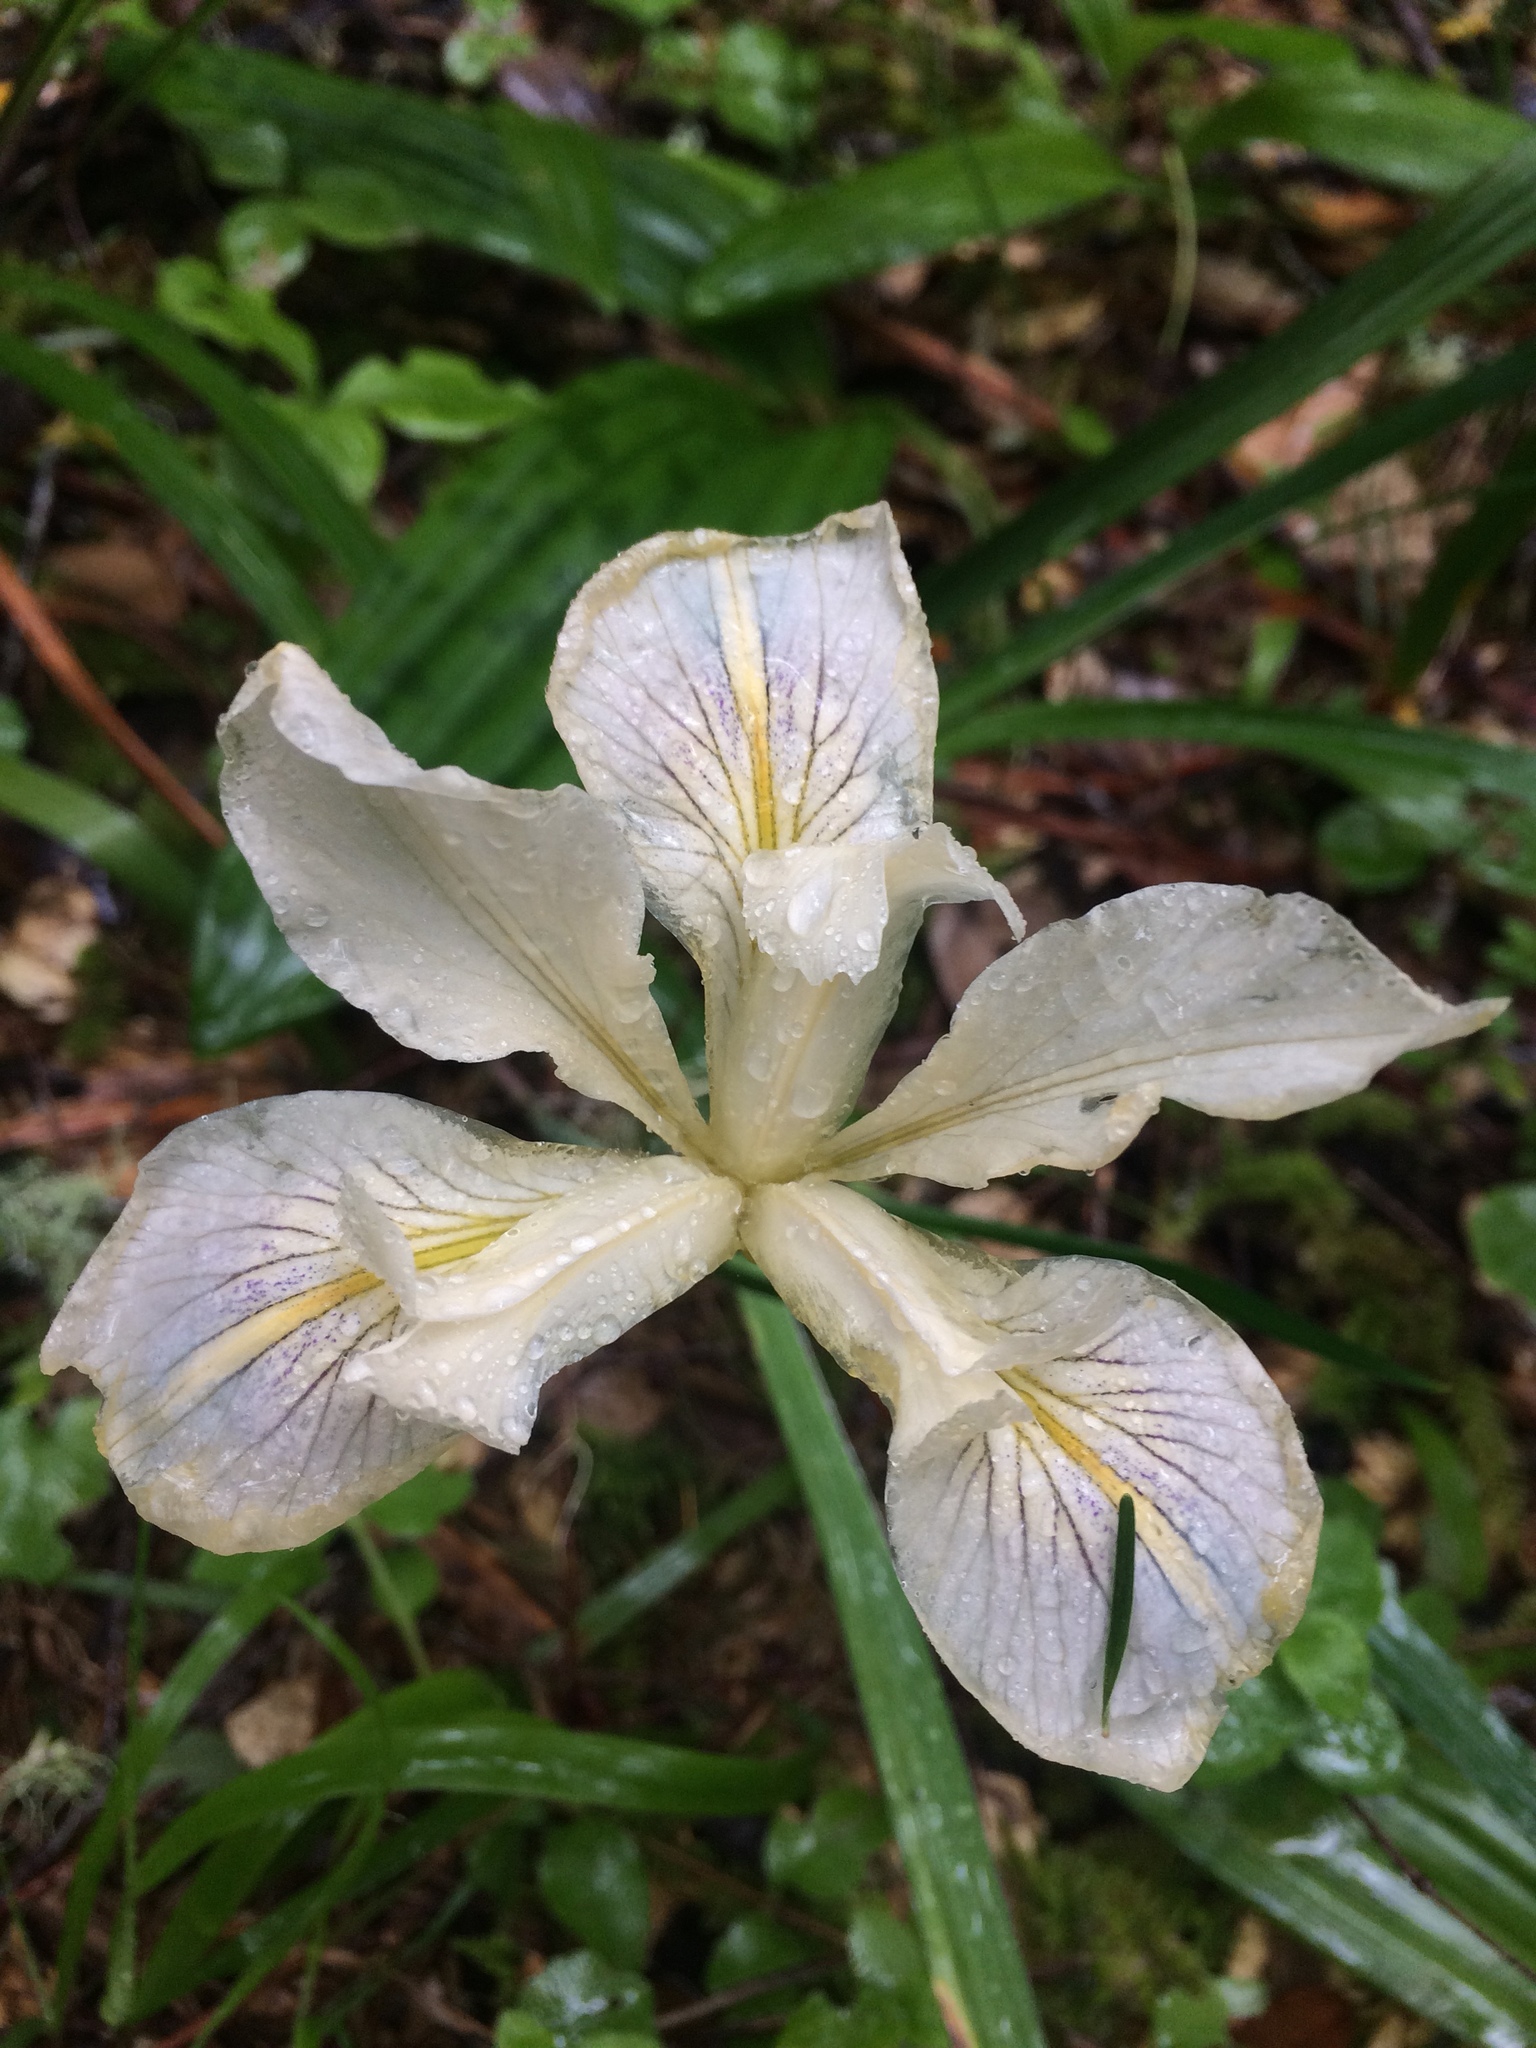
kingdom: Plantae
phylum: Tracheophyta
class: Liliopsida
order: Asparagales
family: Iridaceae
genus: Iris
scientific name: Iris douglasiana
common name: Marin iris
